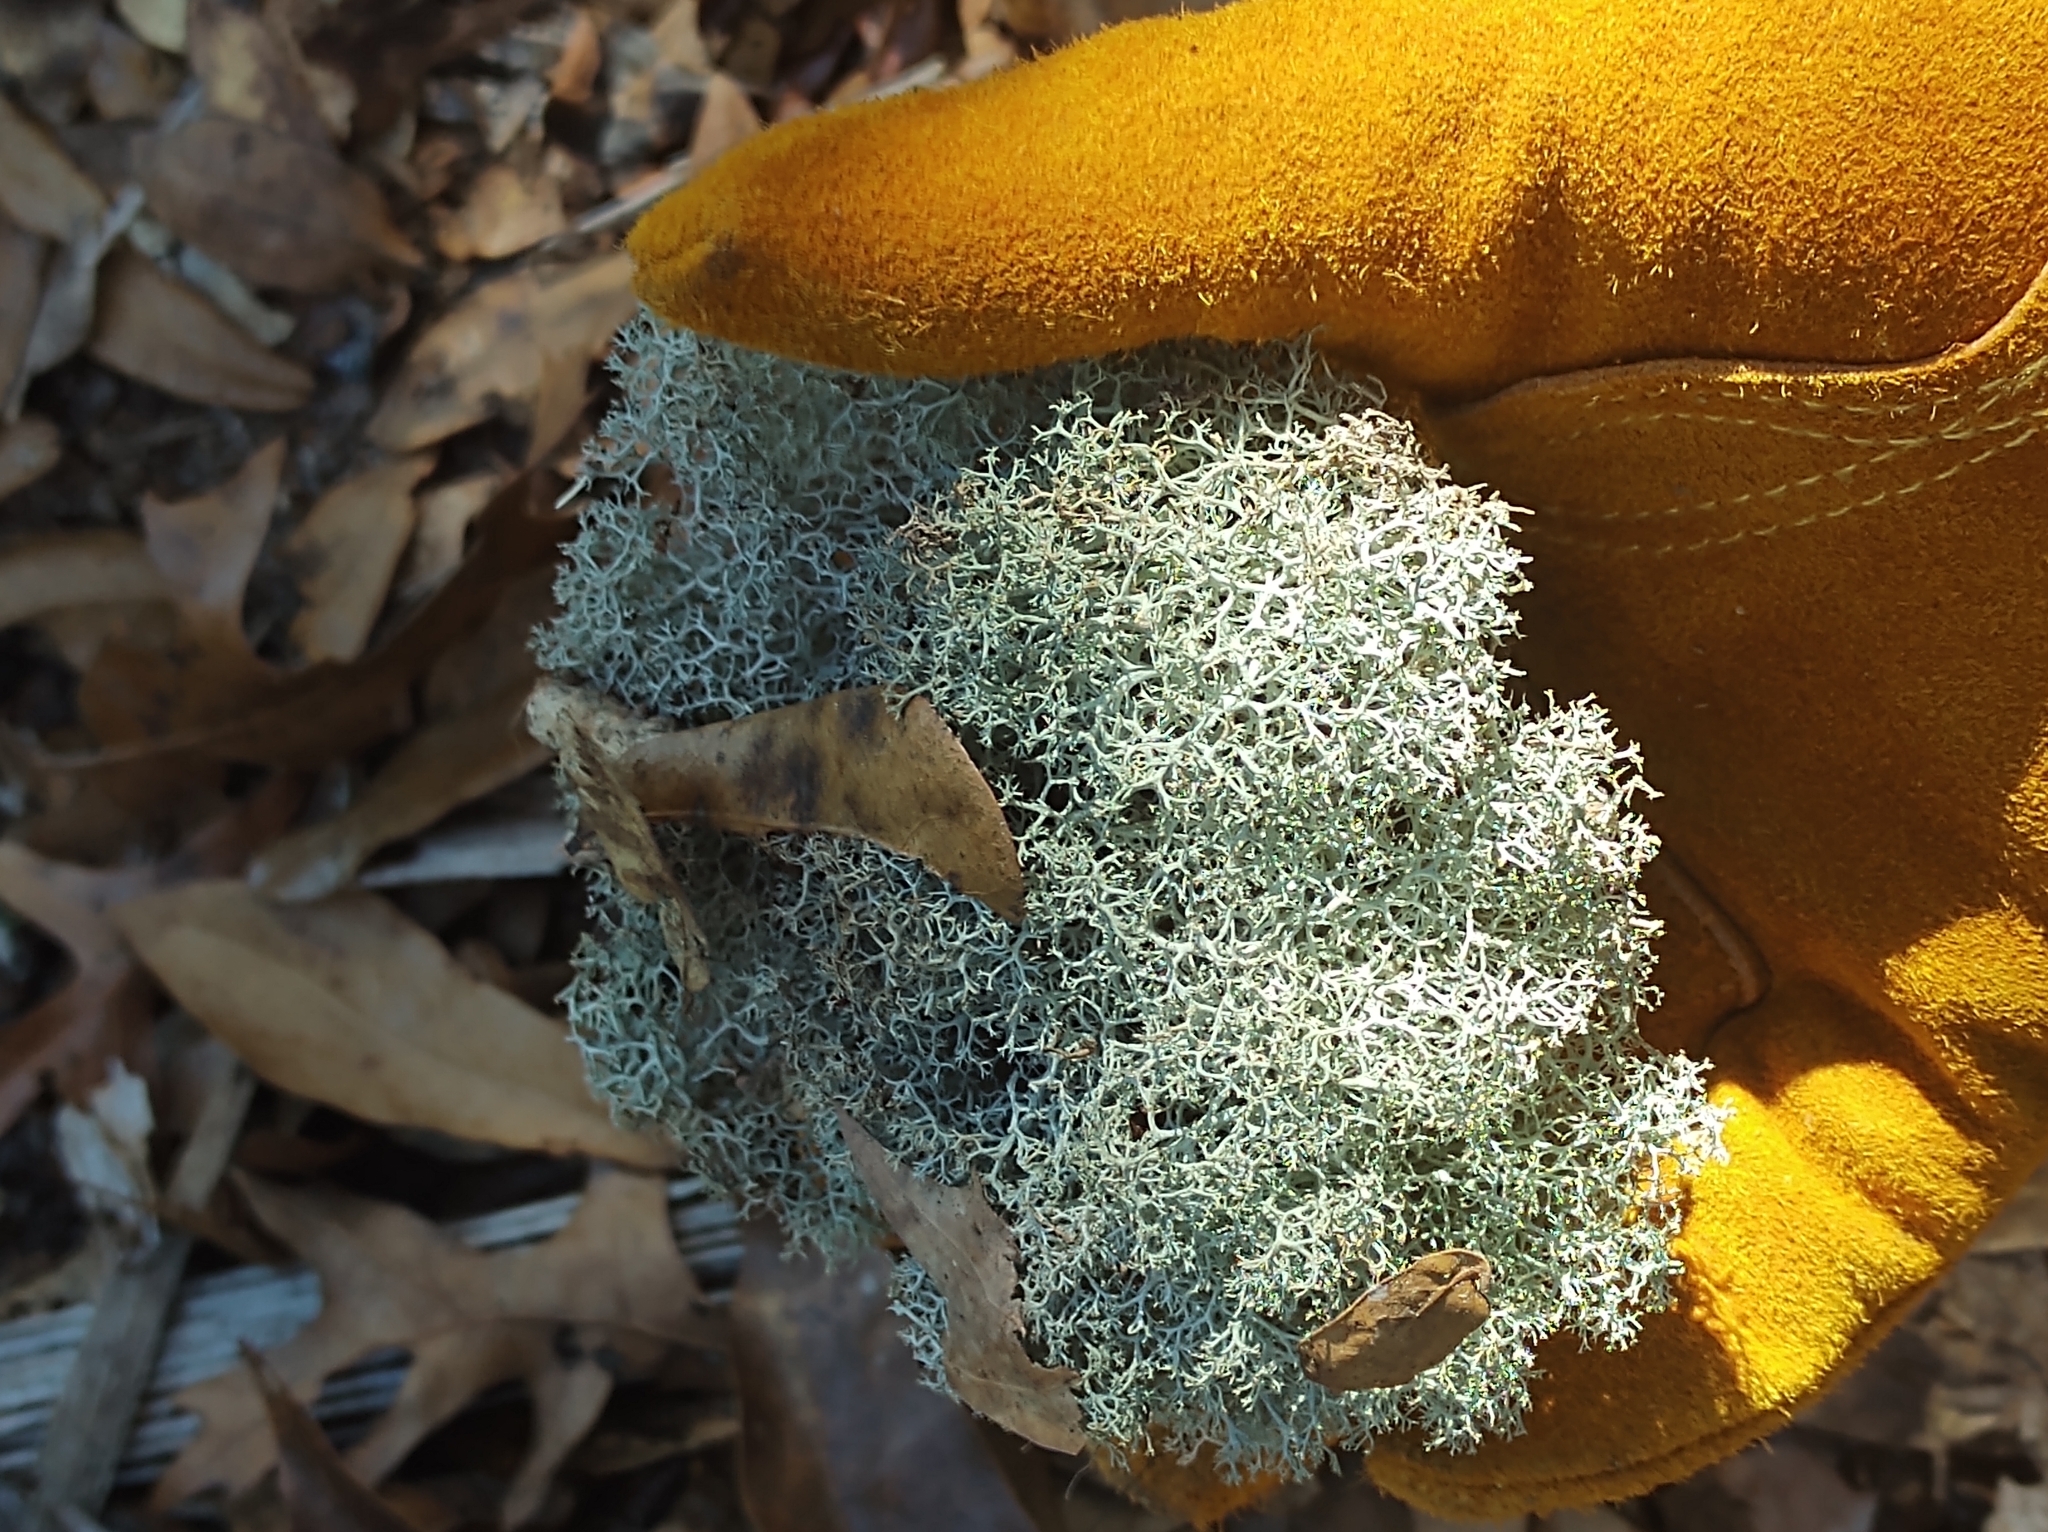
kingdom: Fungi
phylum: Ascomycota
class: Lecanoromycetes
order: Lecanorales
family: Cladoniaceae
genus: Cladonia
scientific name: Cladonia subtenuis
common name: Dixie reindeer lichen
